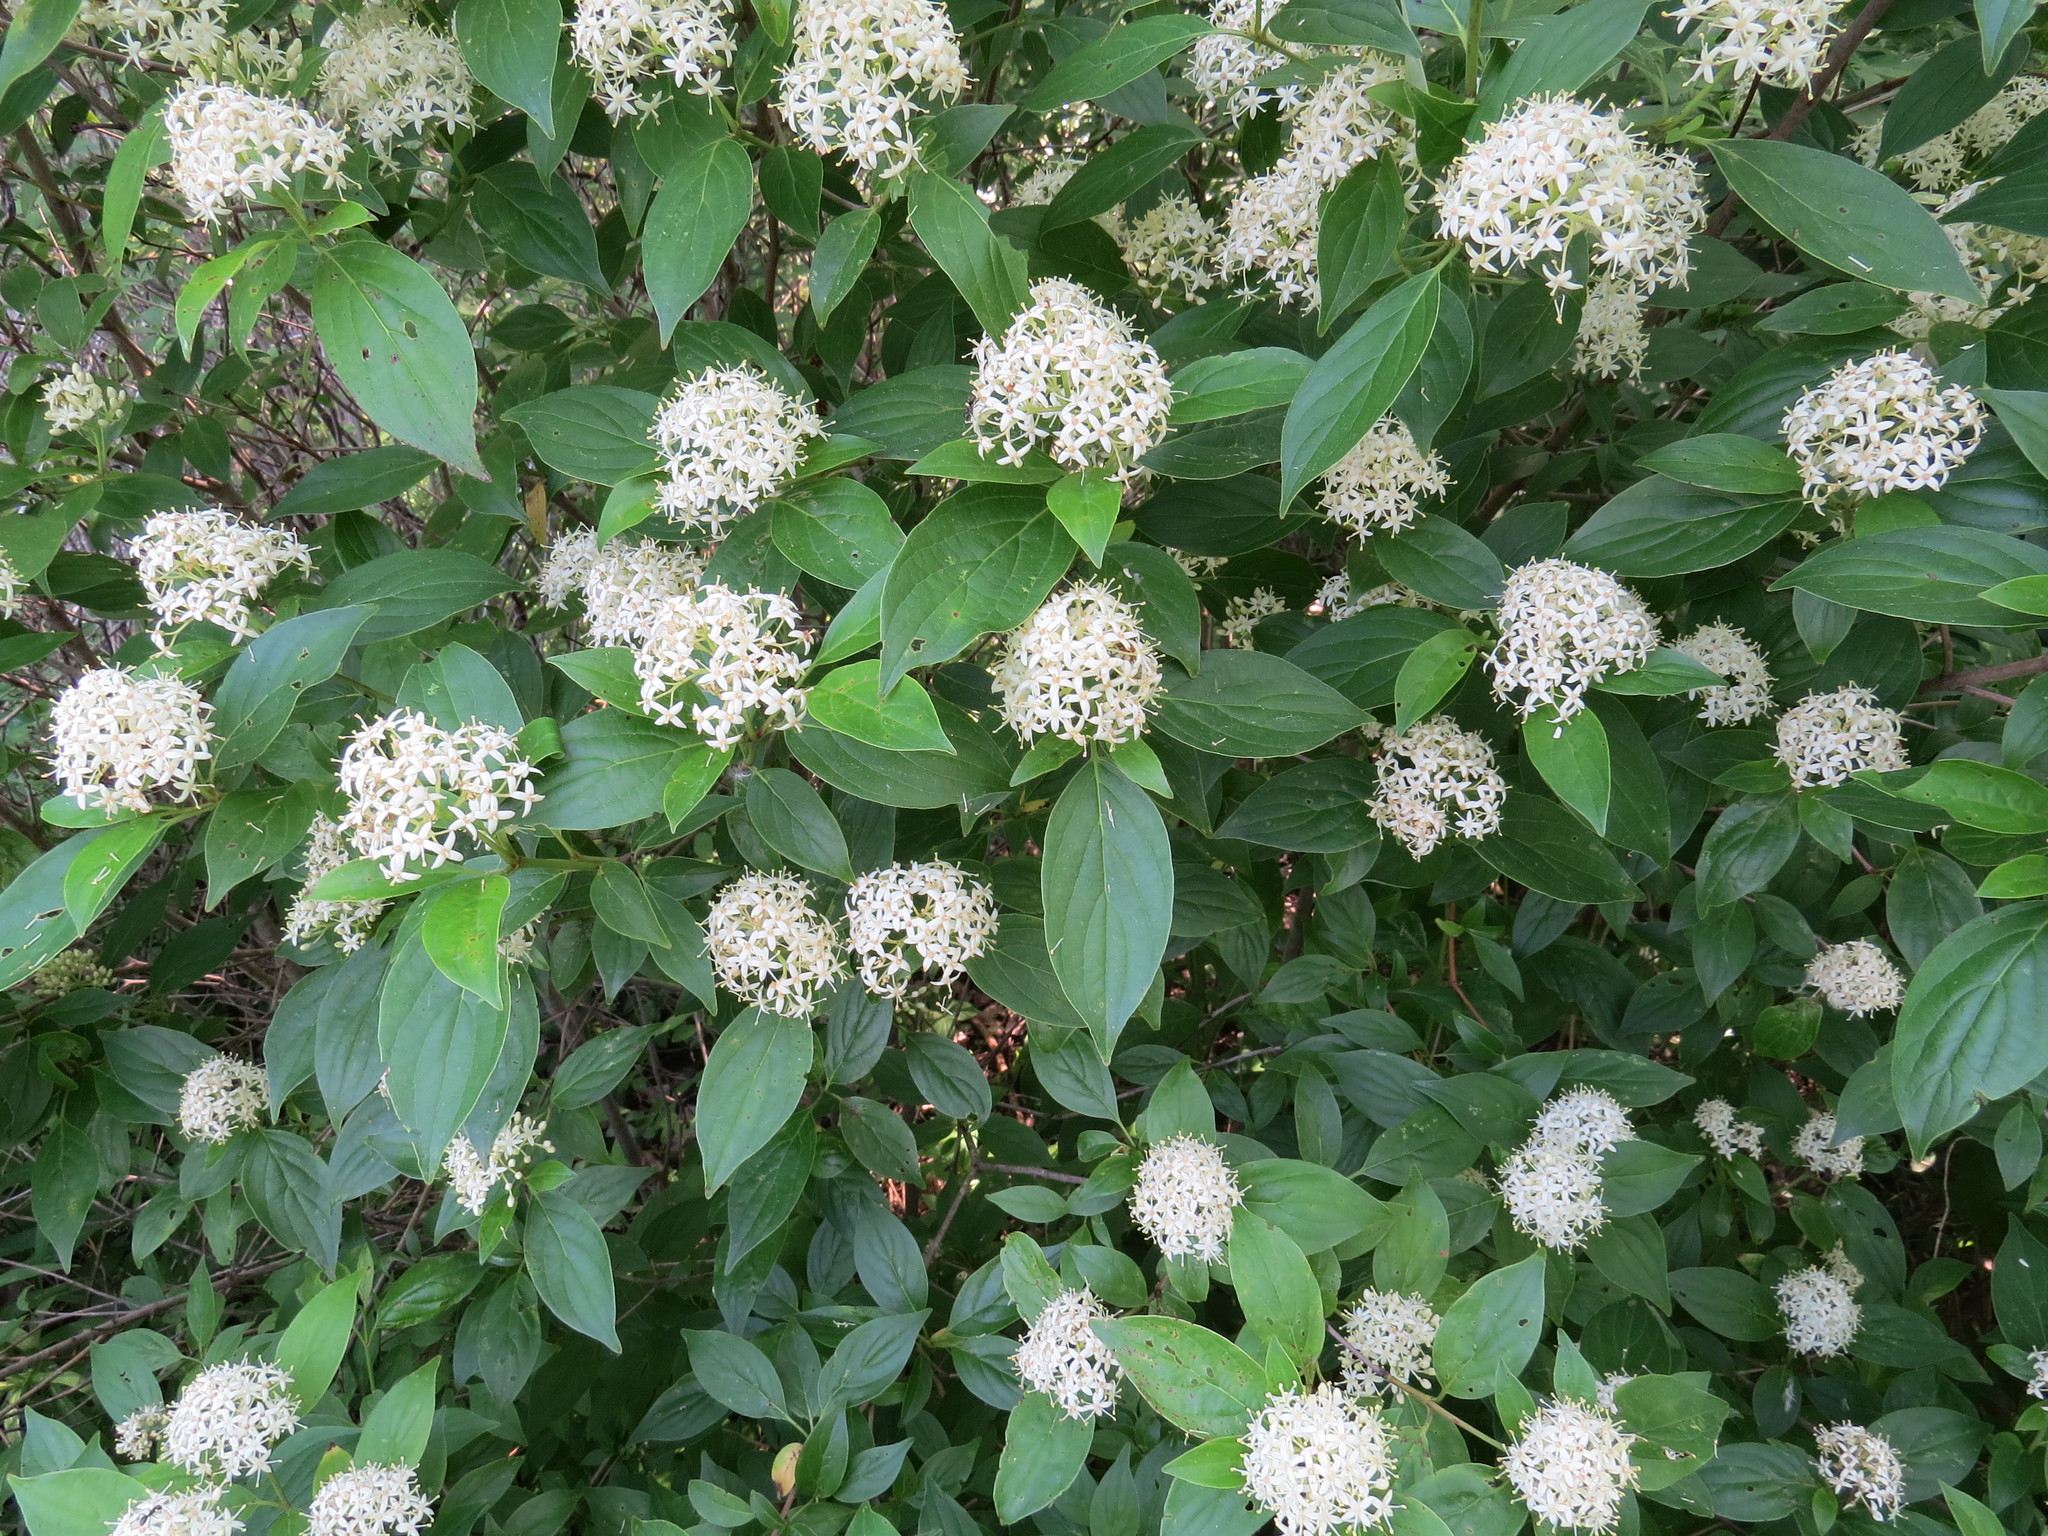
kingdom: Plantae
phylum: Tracheophyta
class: Magnoliopsida
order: Cornales
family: Cornaceae
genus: Cornus
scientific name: Cornus racemosa
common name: Panicled dogwood
